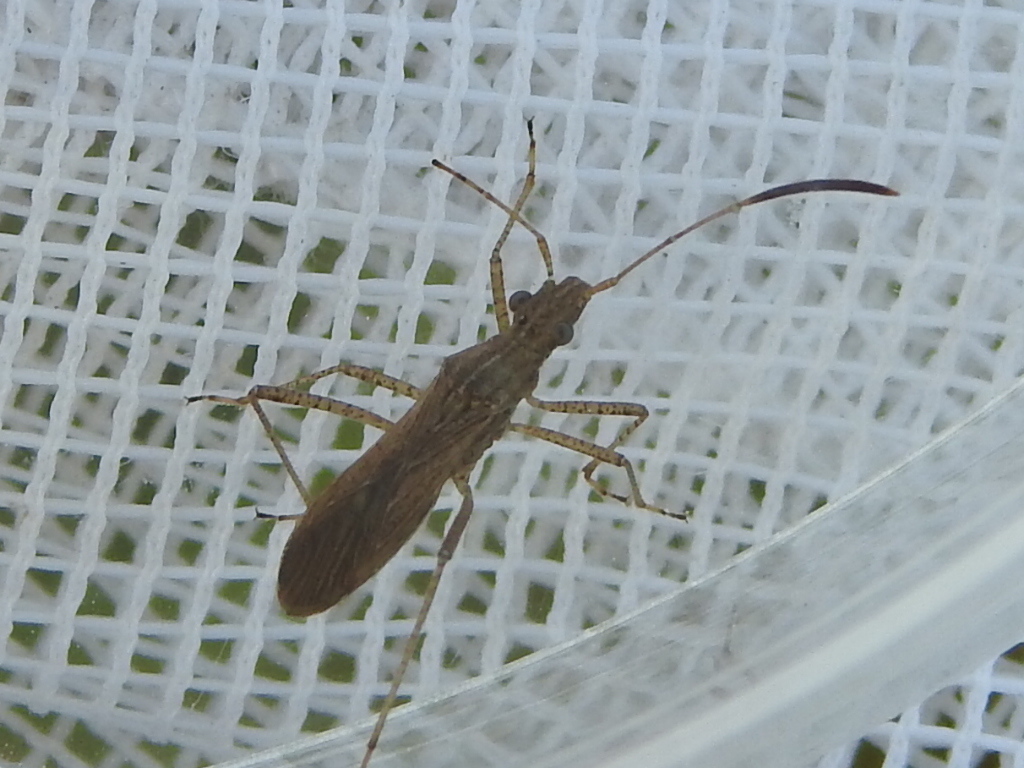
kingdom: Animalia
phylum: Arthropoda
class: Insecta
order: Hemiptera
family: Alydidae
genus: Esperanza
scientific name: Esperanza texana
